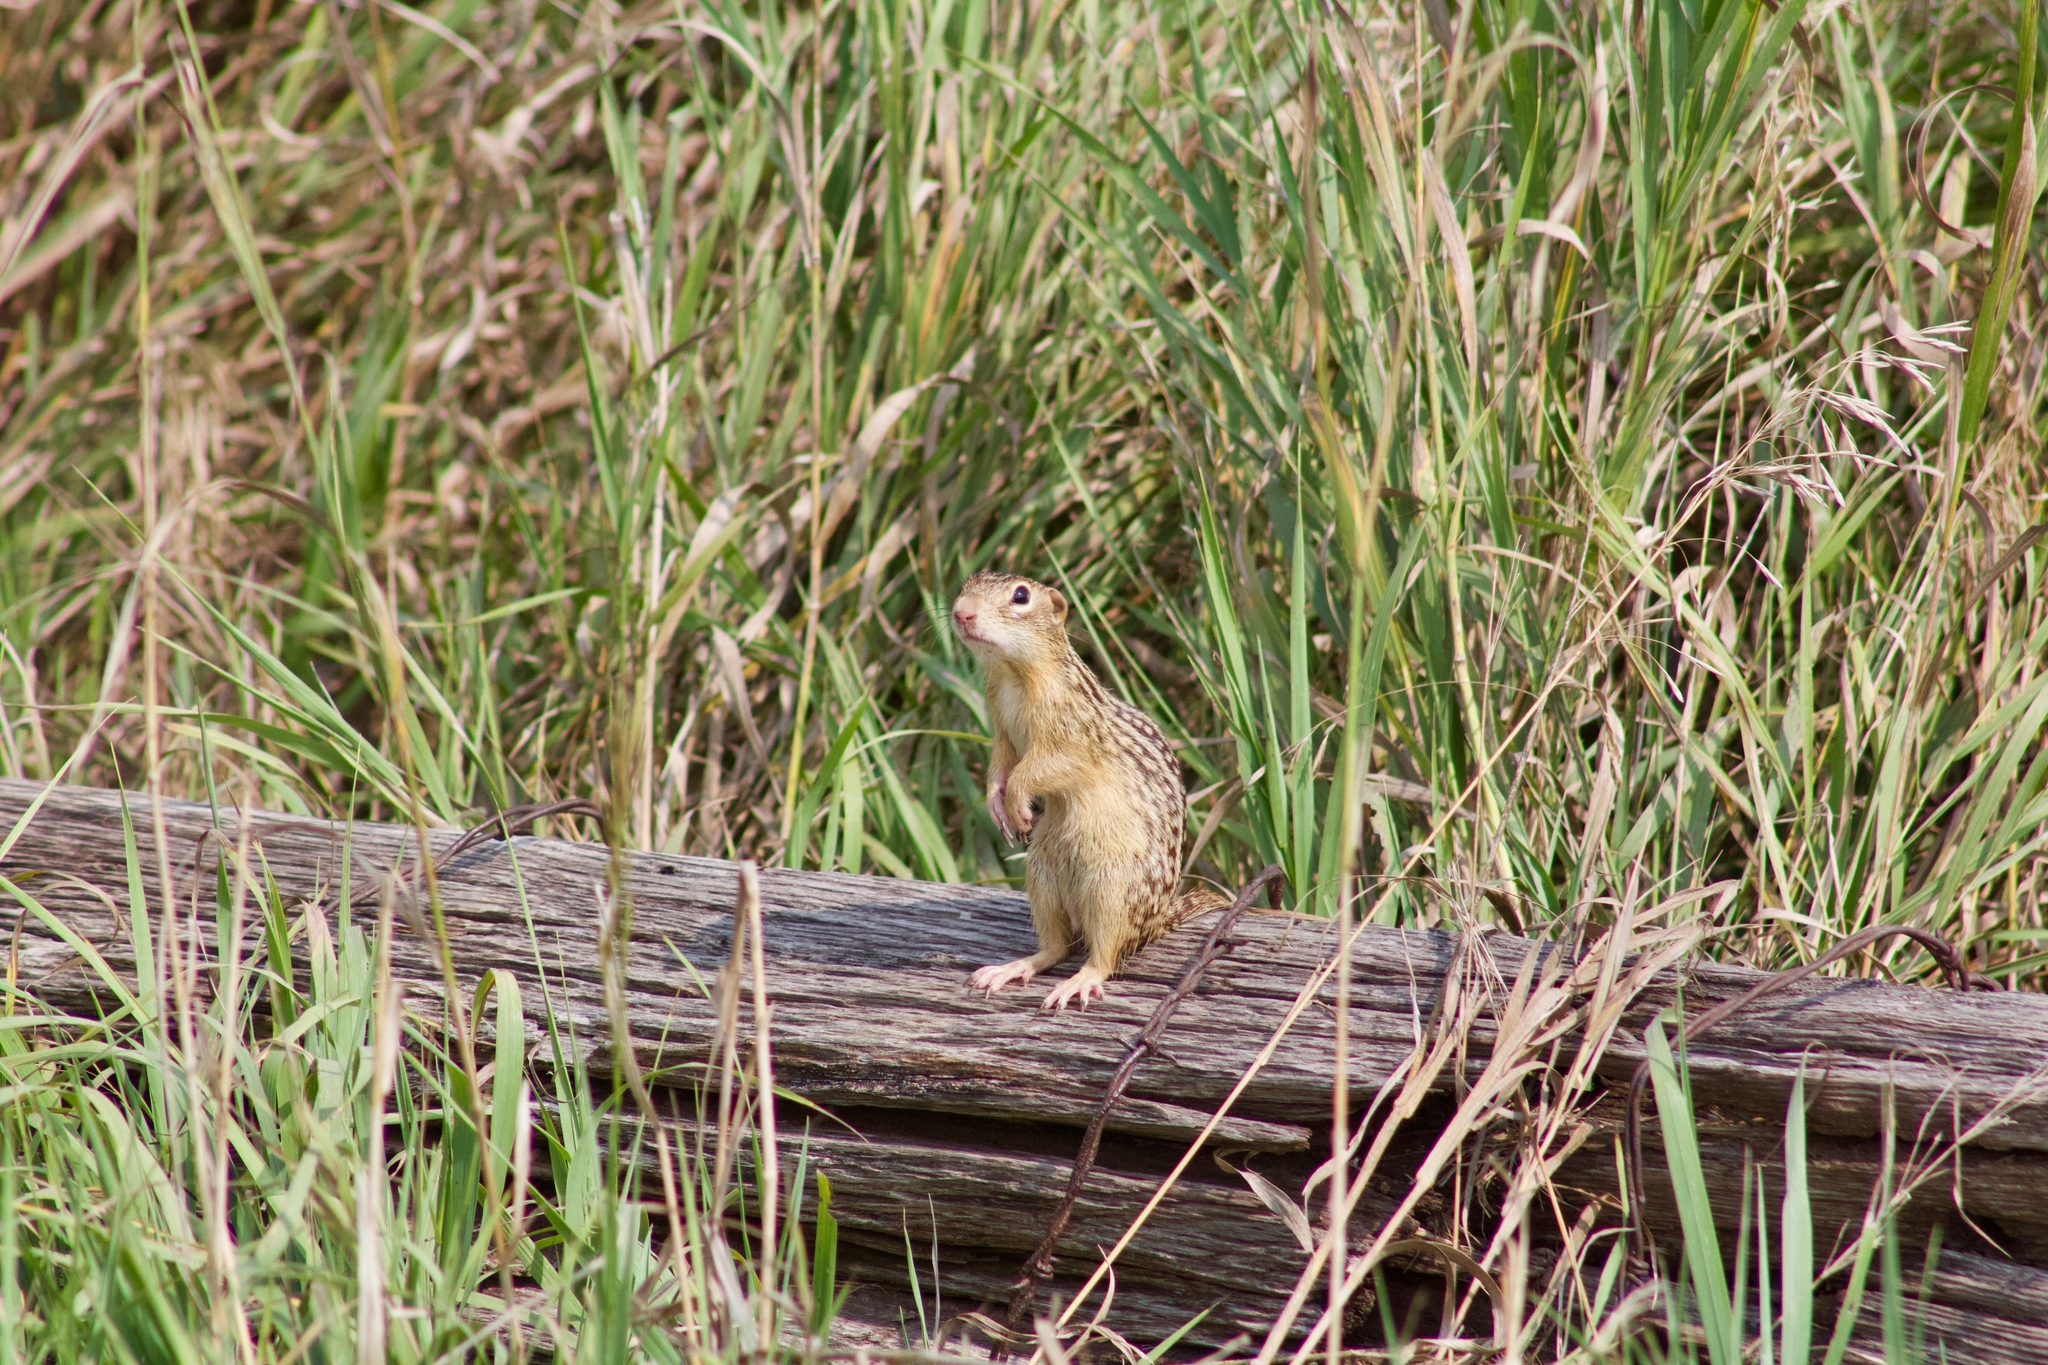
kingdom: Animalia
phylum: Chordata
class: Mammalia
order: Rodentia
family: Sciuridae
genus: Ictidomys
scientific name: Ictidomys tridecemlineatus
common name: Thirteen-lined ground squirrel
